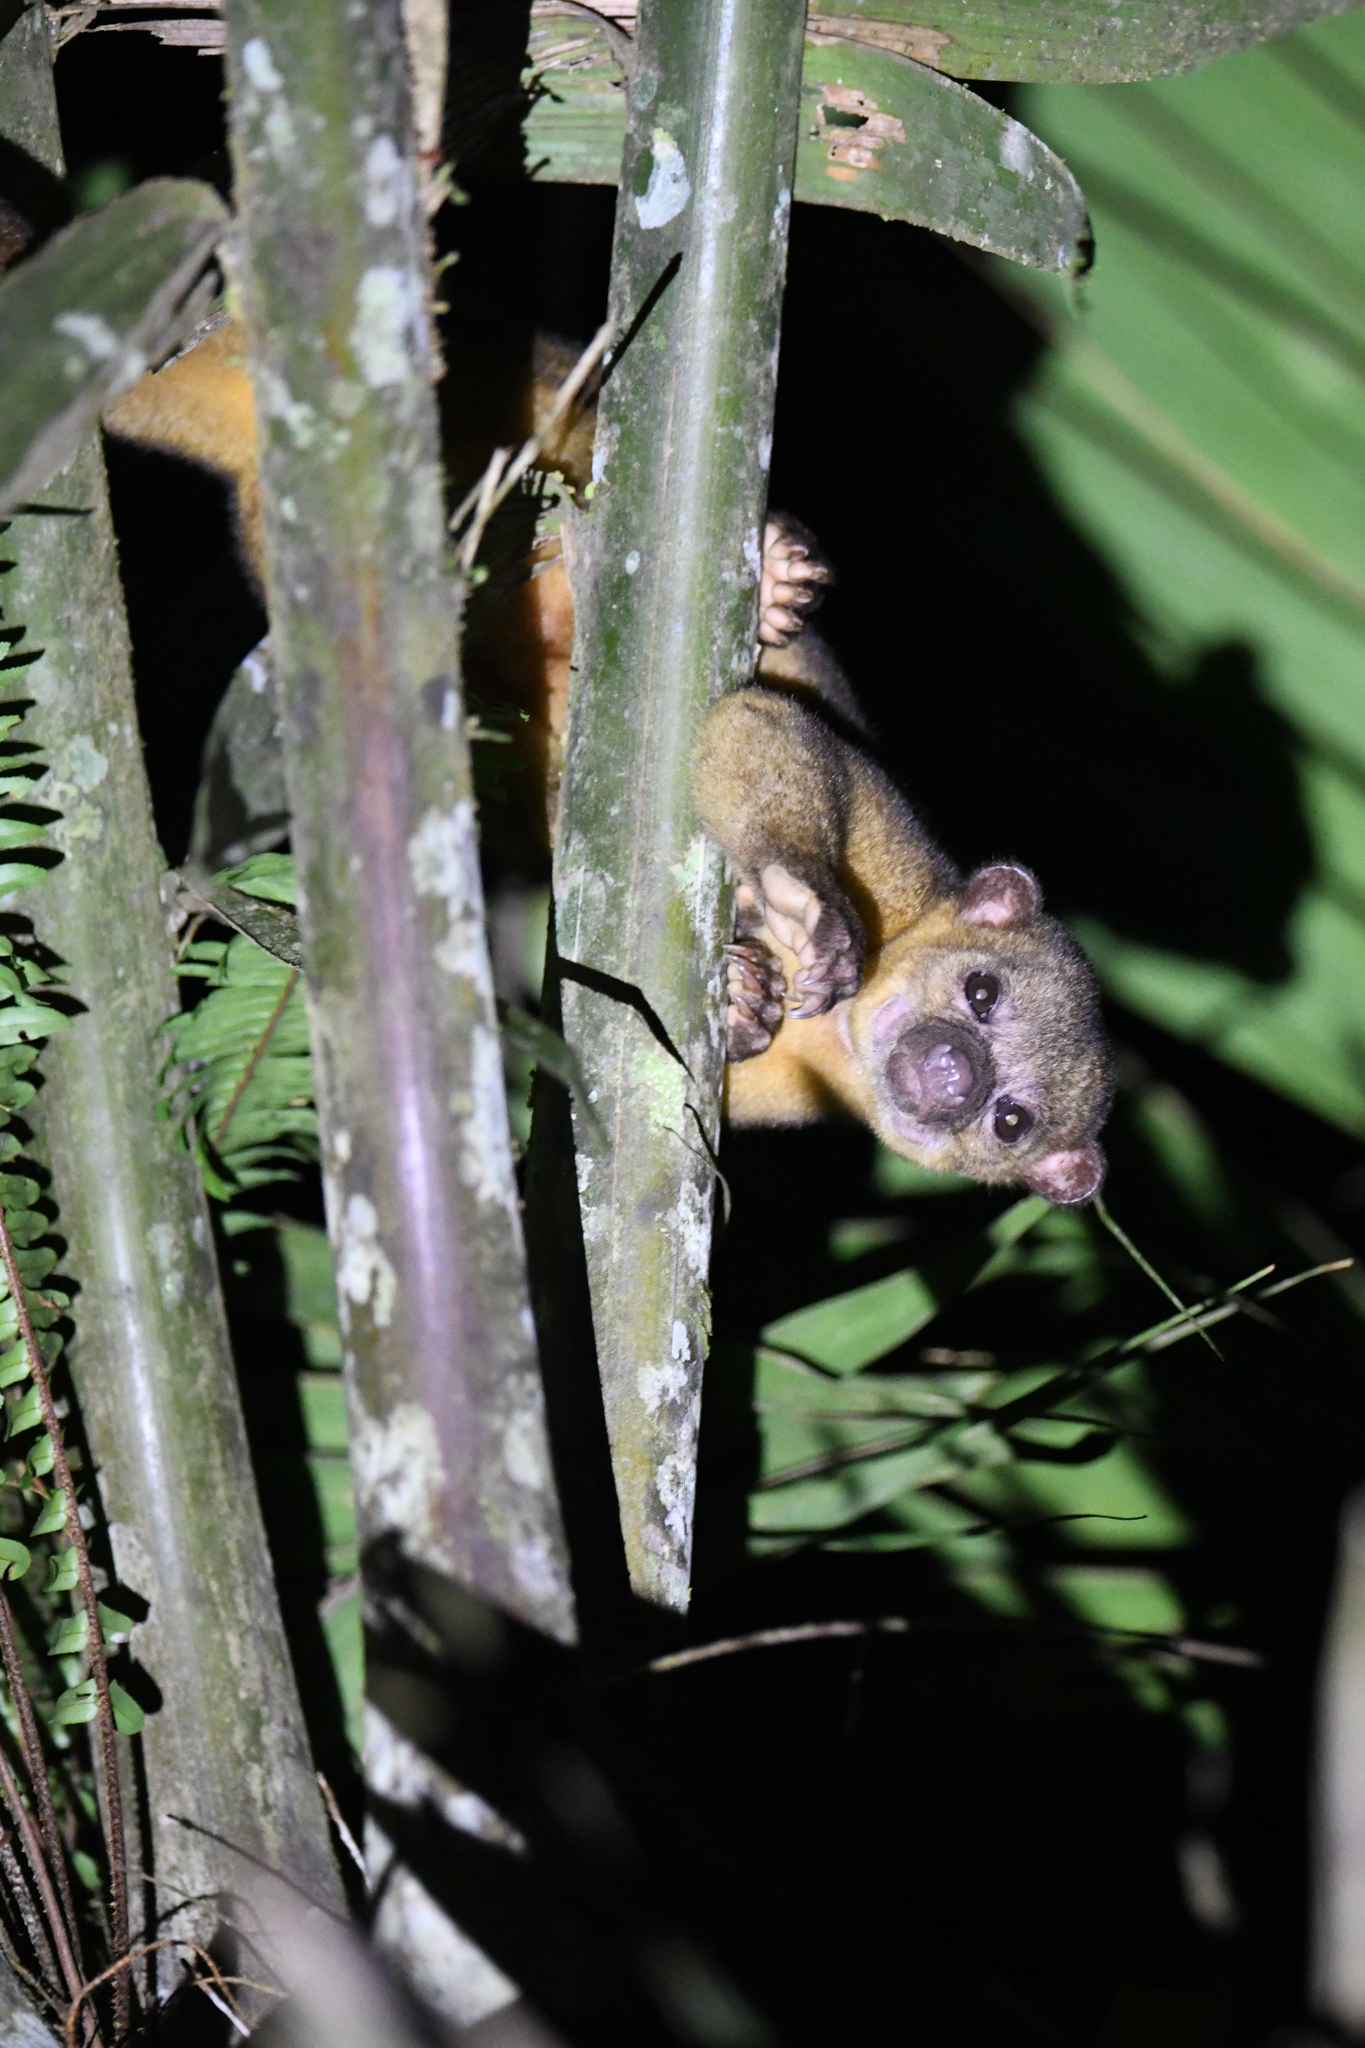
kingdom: Animalia
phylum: Chordata
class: Mammalia
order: Carnivora
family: Procyonidae
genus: Potos
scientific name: Potos flavus
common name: Kinkajou
